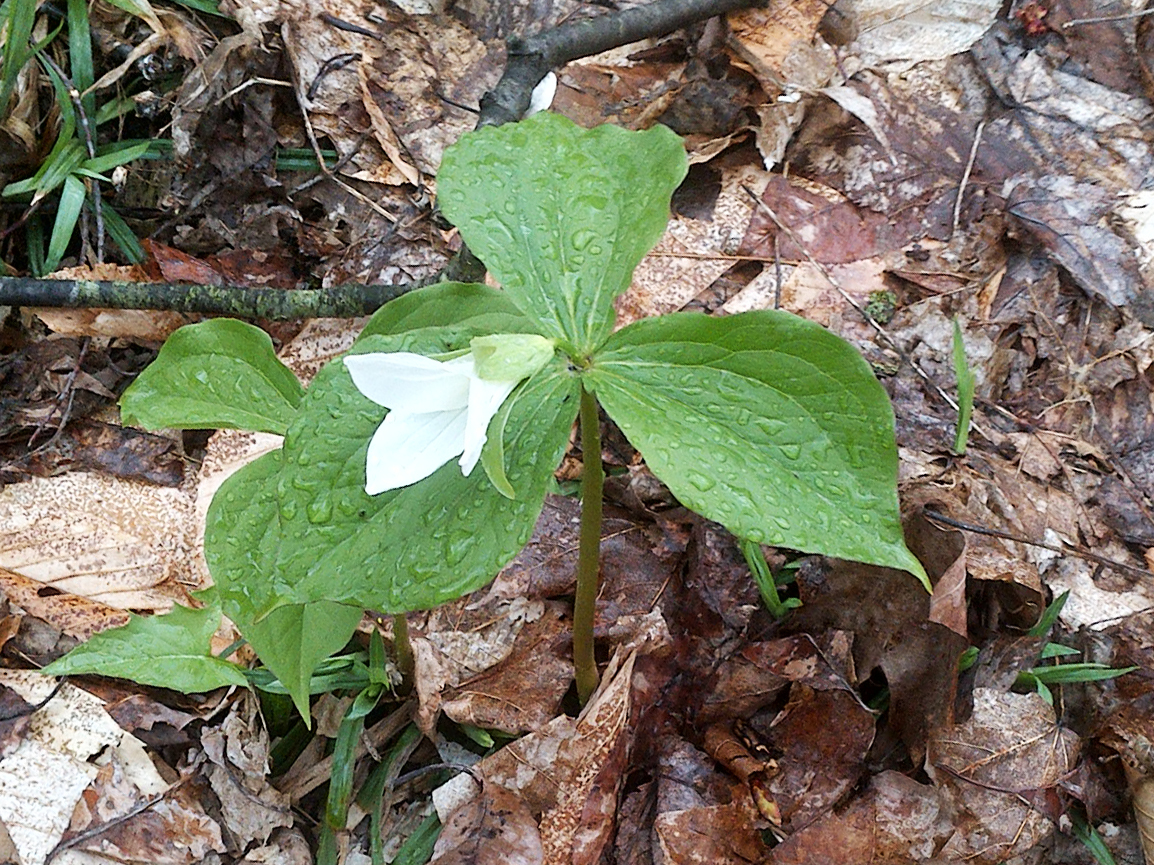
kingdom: Plantae
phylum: Tracheophyta
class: Liliopsida
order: Liliales
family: Melanthiaceae
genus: Trillium
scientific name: Trillium grandiflorum
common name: Great white trillium
